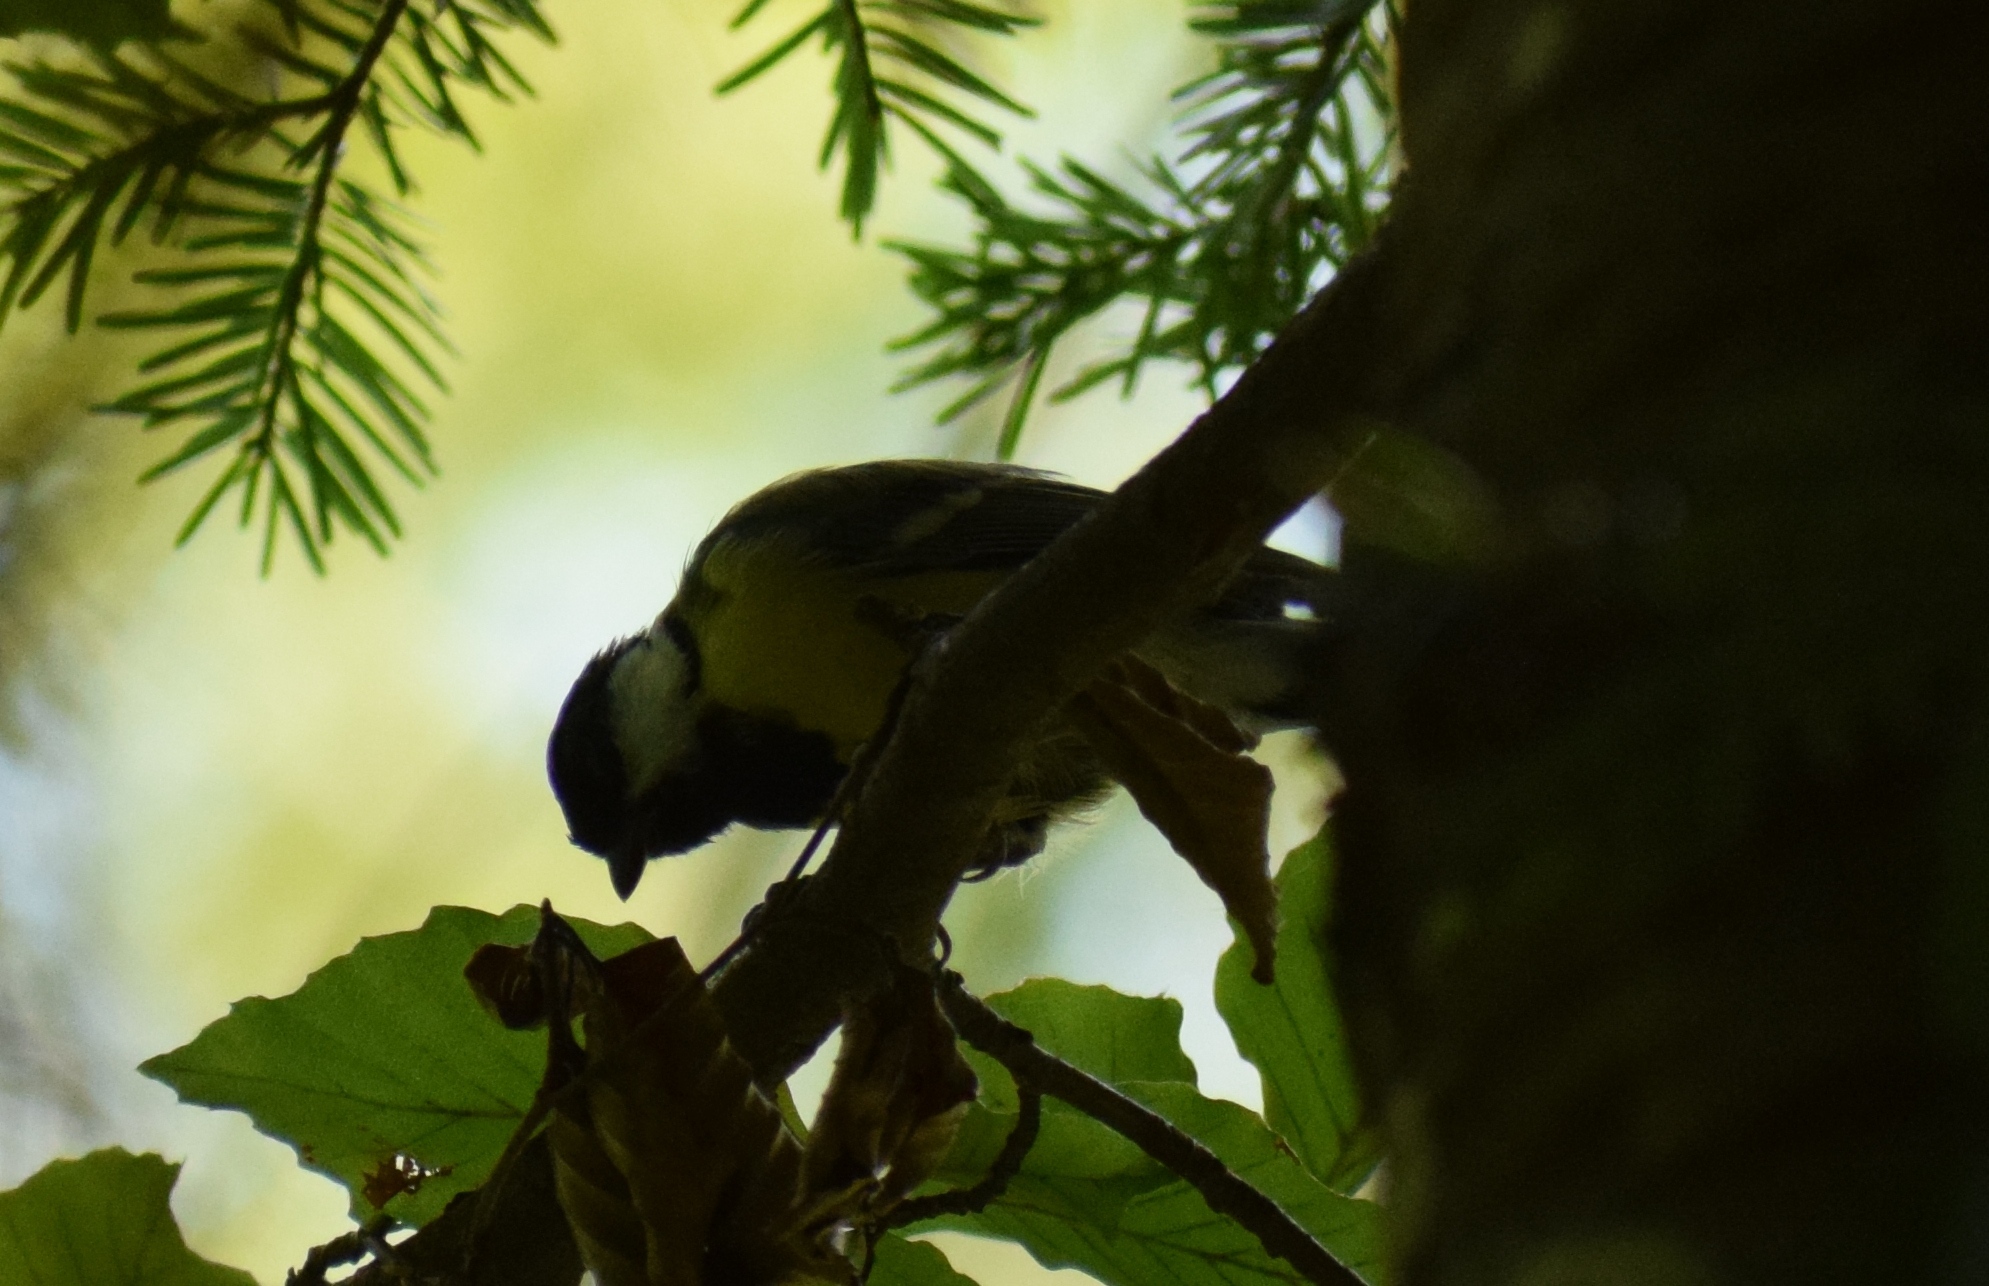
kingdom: Animalia
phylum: Chordata
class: Aves
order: Passeriformes
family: Paridae
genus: Parus
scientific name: Parus major
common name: Great tit
